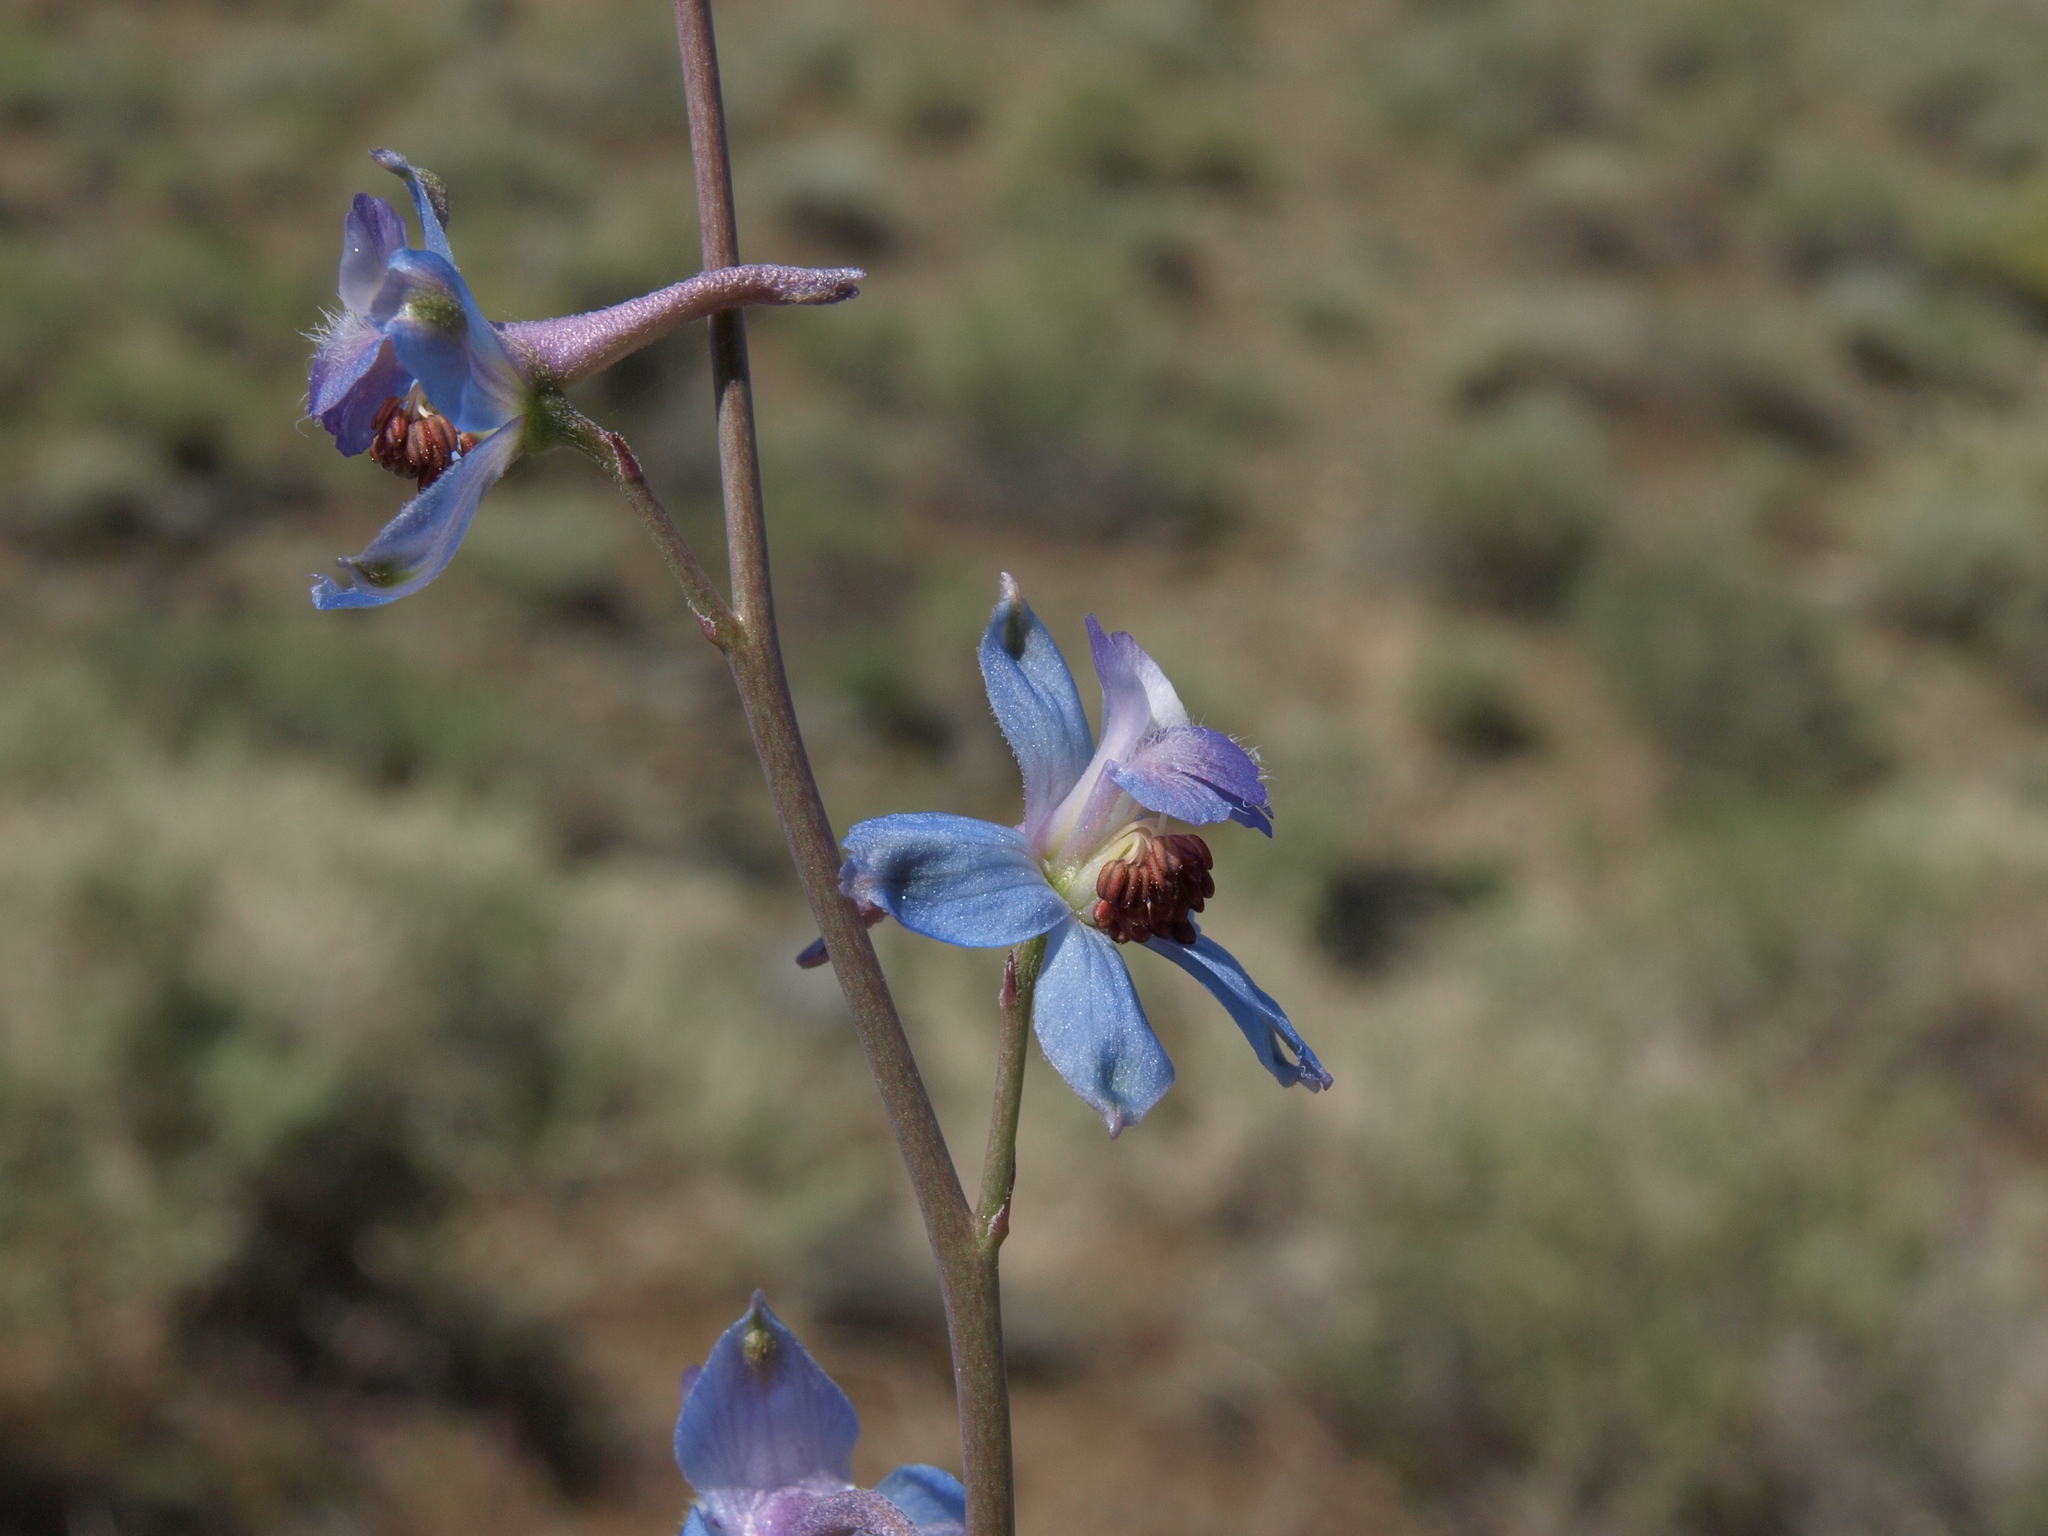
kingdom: Plantae
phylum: Tracheophyta
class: Magnoliopsida
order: Ranunculales
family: Ranunculaceae
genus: Delphinium
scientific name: Delphinium parishii
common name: Apache larkspur
